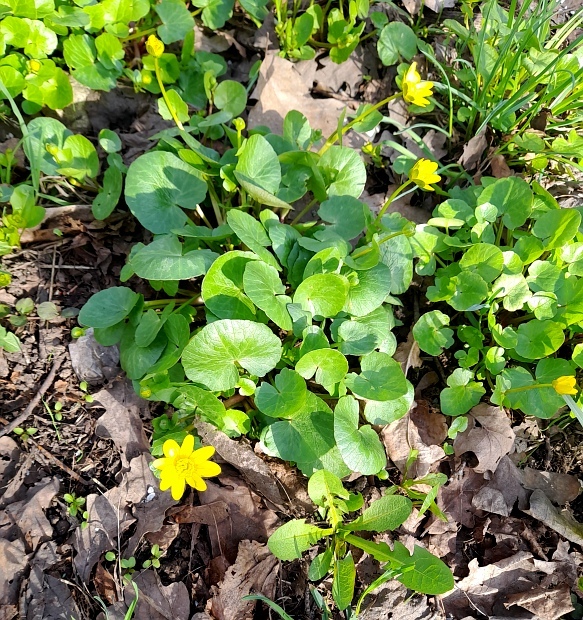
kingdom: Plantae
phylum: Tracheophyta
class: Magnoliopsida
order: Ranunculales
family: Ranunculaceae
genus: Ficaria
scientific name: Ficaria verna
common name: Lesser celandine
